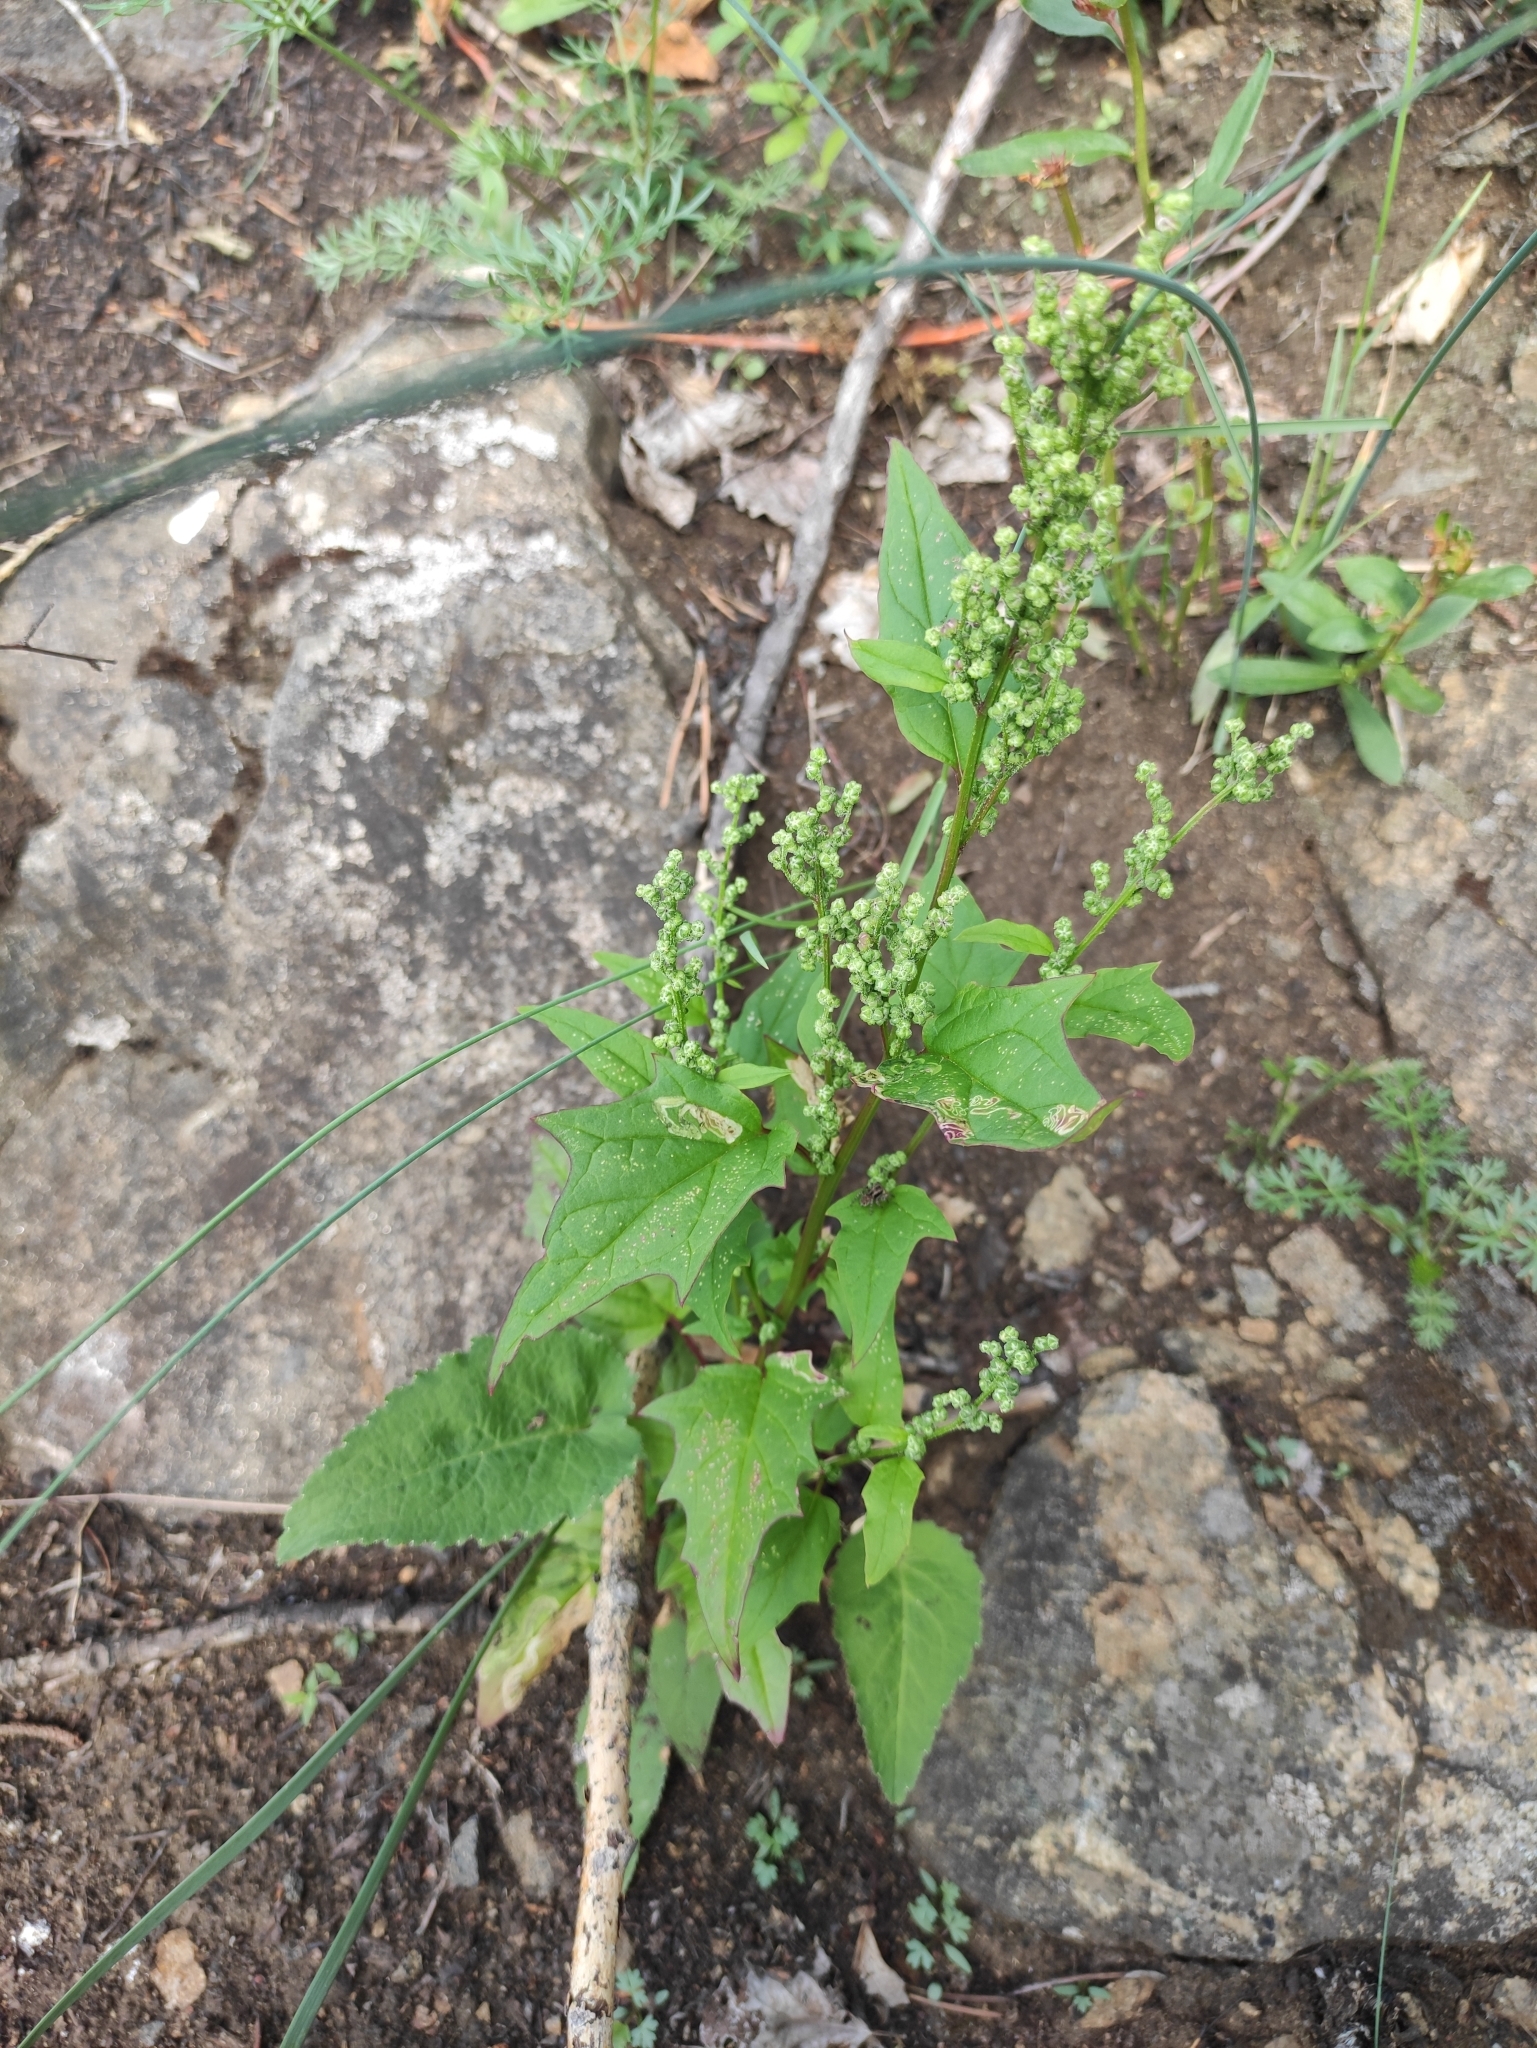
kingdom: Plantae
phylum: Tracheophyta
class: Magnoliopsida
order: Caryophyllales
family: Amaranthaceae
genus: Chenopodiastrum
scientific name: Chenopodiastrum hybridum
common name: Mapleleaf goosefoot
